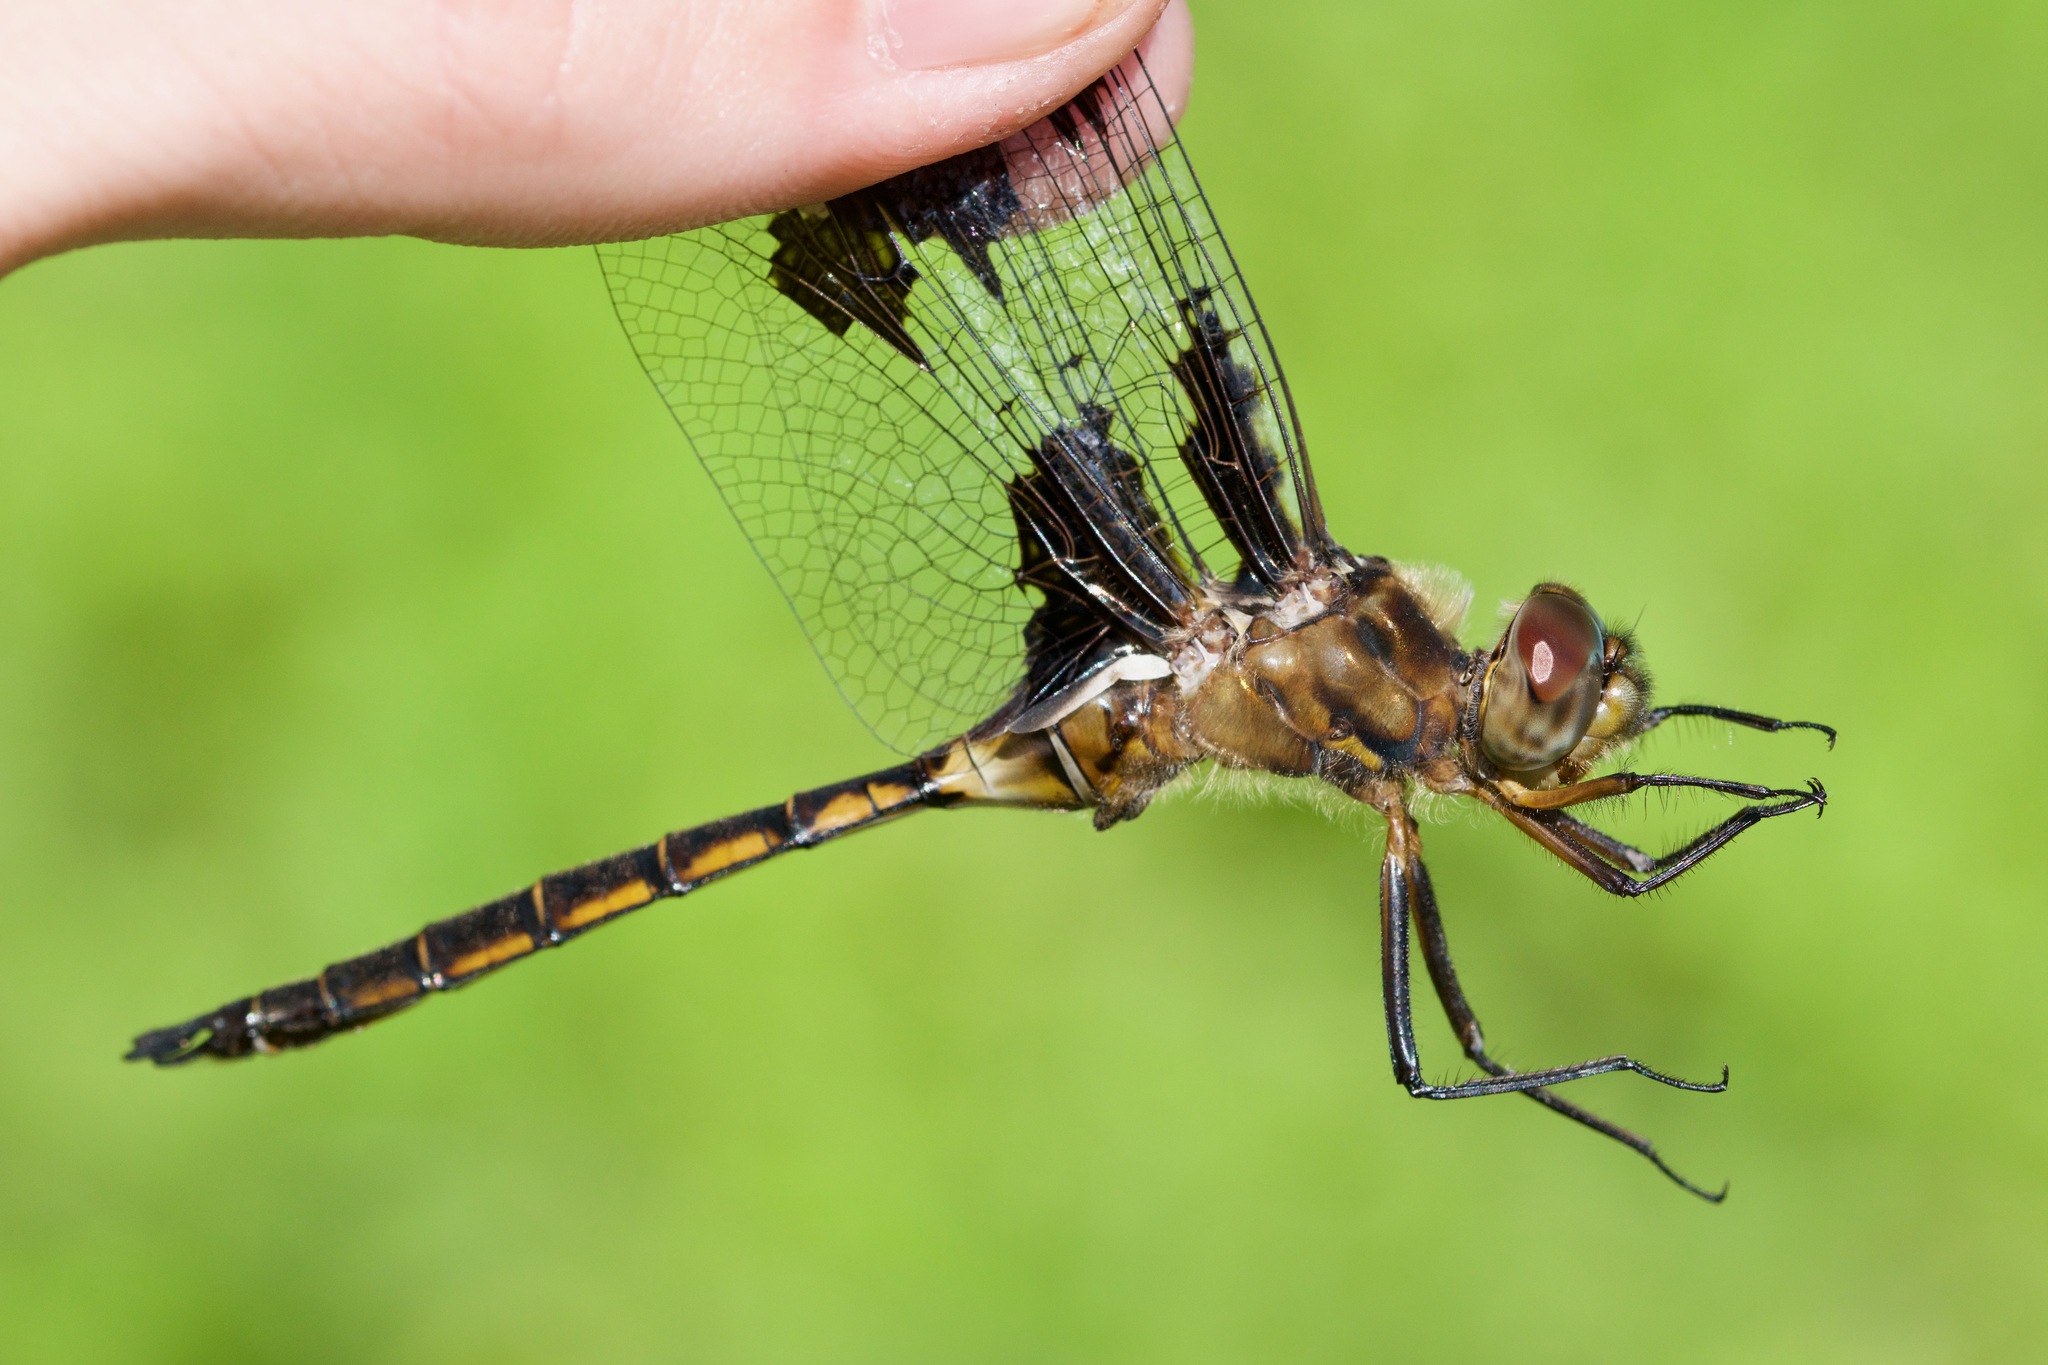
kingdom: Animalia
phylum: Arthropoda
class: Insecta
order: Odonata
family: Corduliidae
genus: Epitheca
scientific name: Epitheca princeps
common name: Prince baskettail
